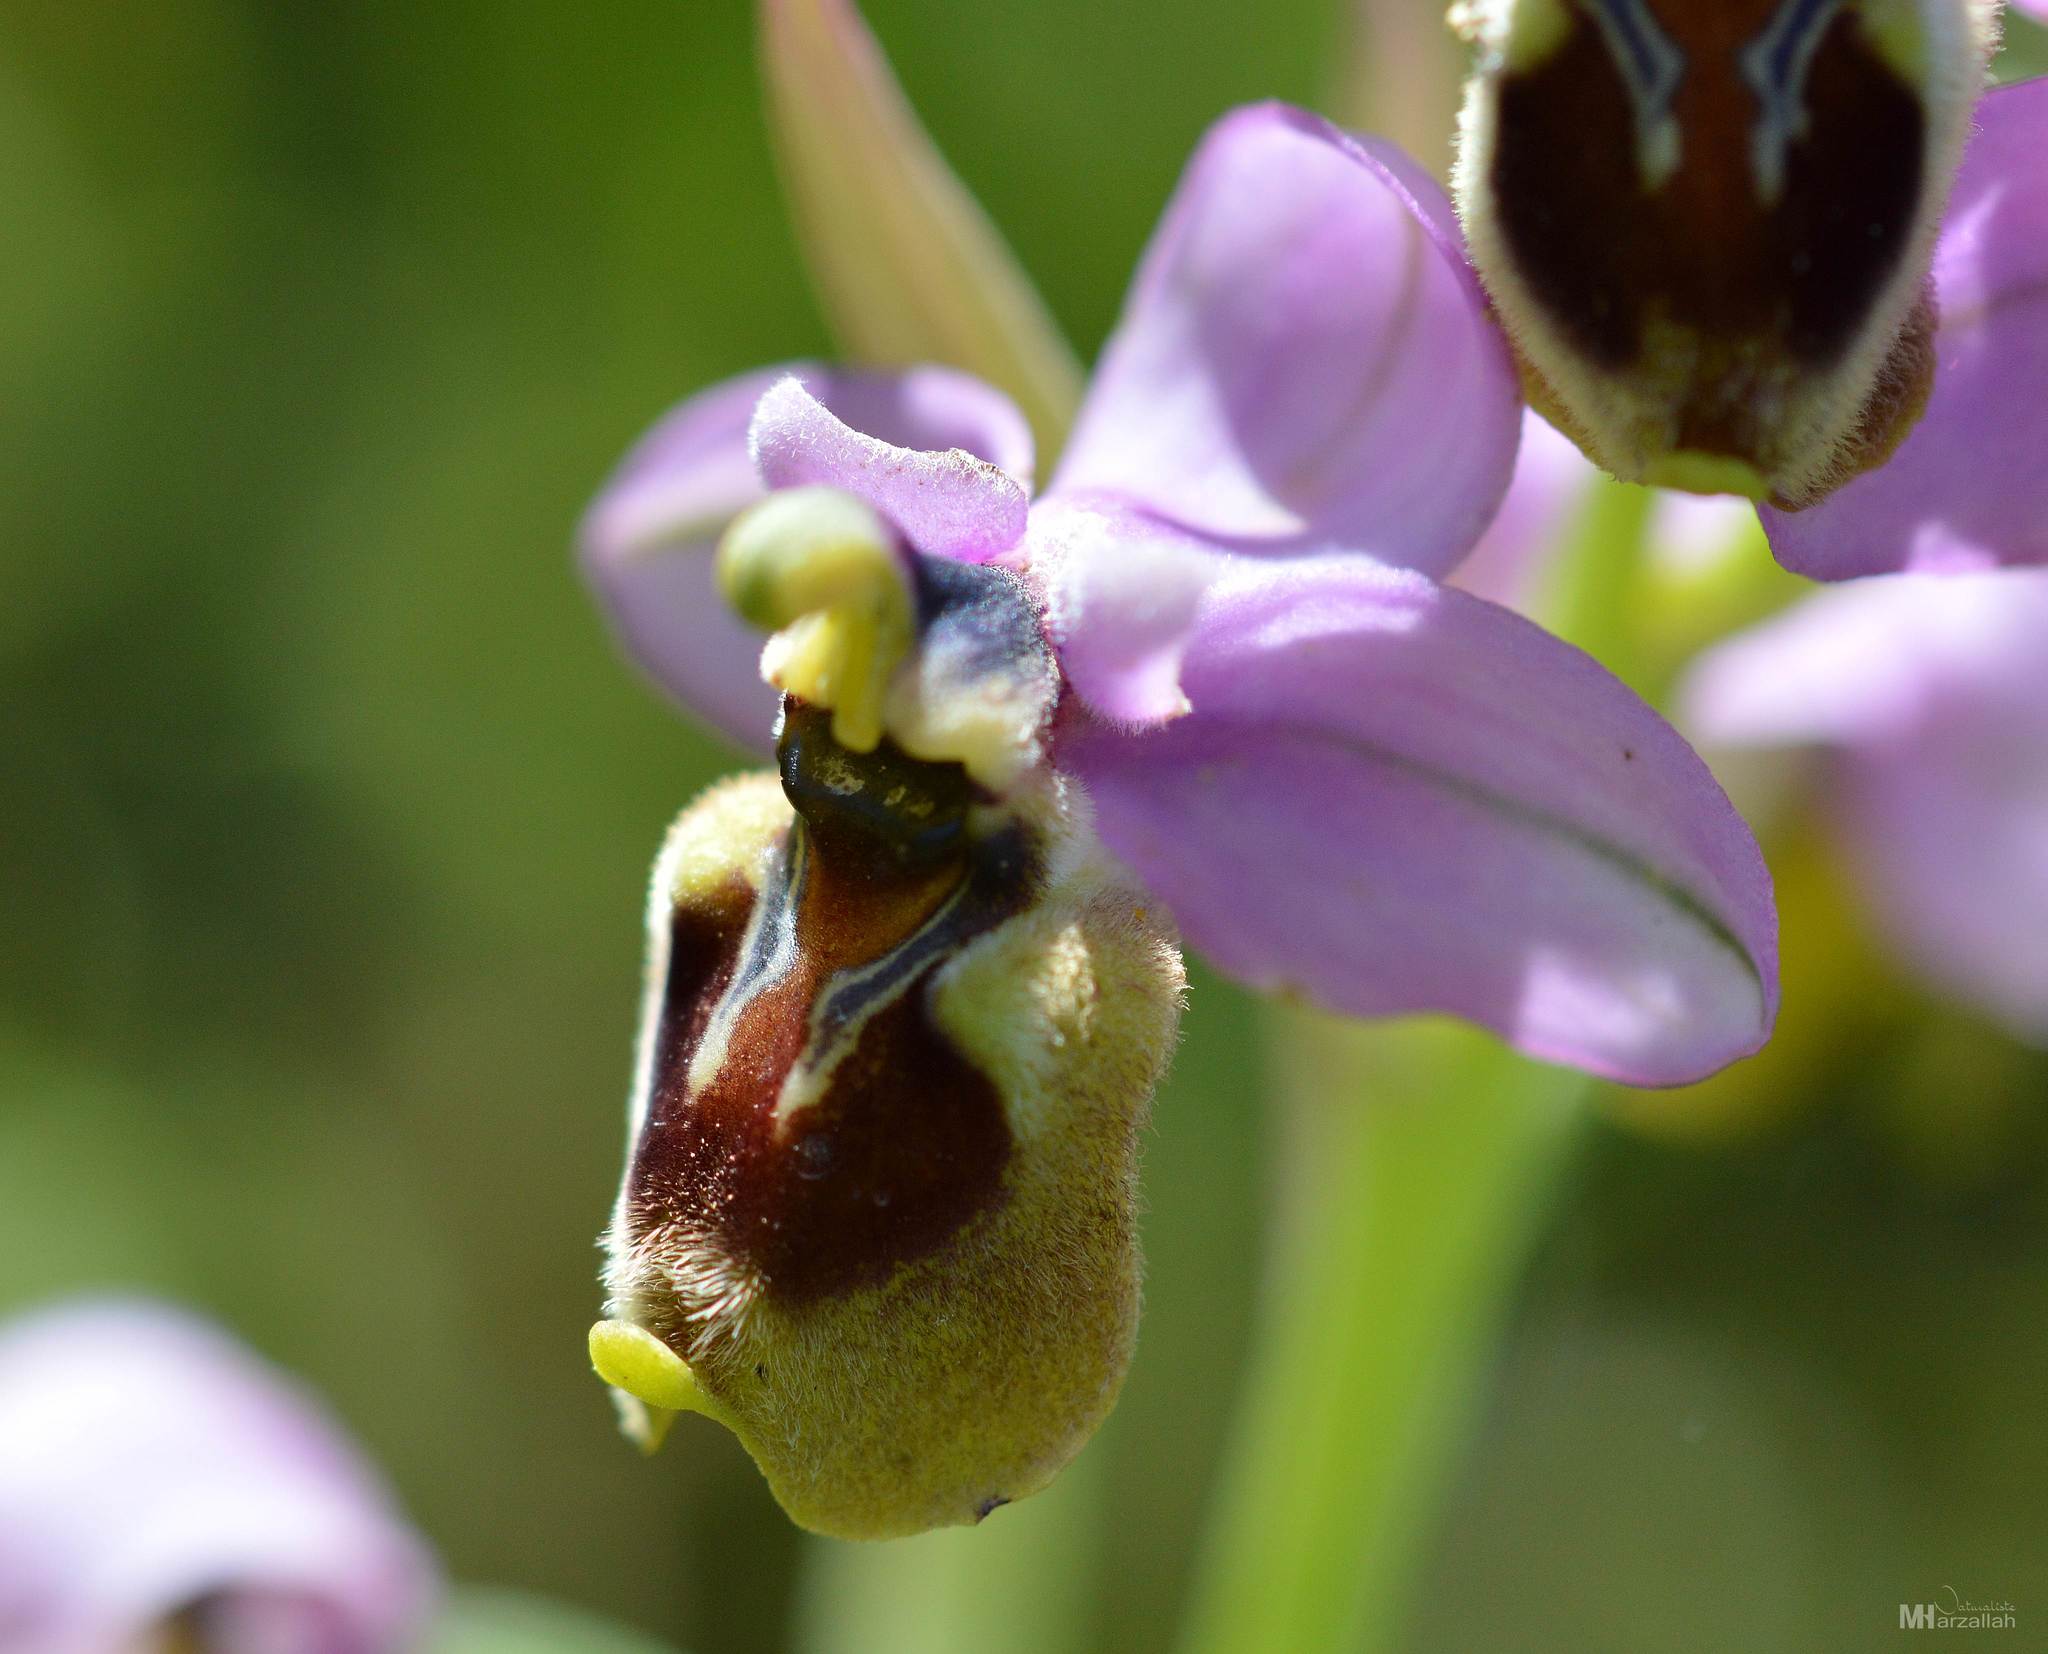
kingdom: Plantae
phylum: Tracheophyta
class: Liliopsida
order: Asparagales
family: Orchidaceae
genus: Ophrys
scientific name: Ophrys tenthredinifera
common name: Sawfly orchid
